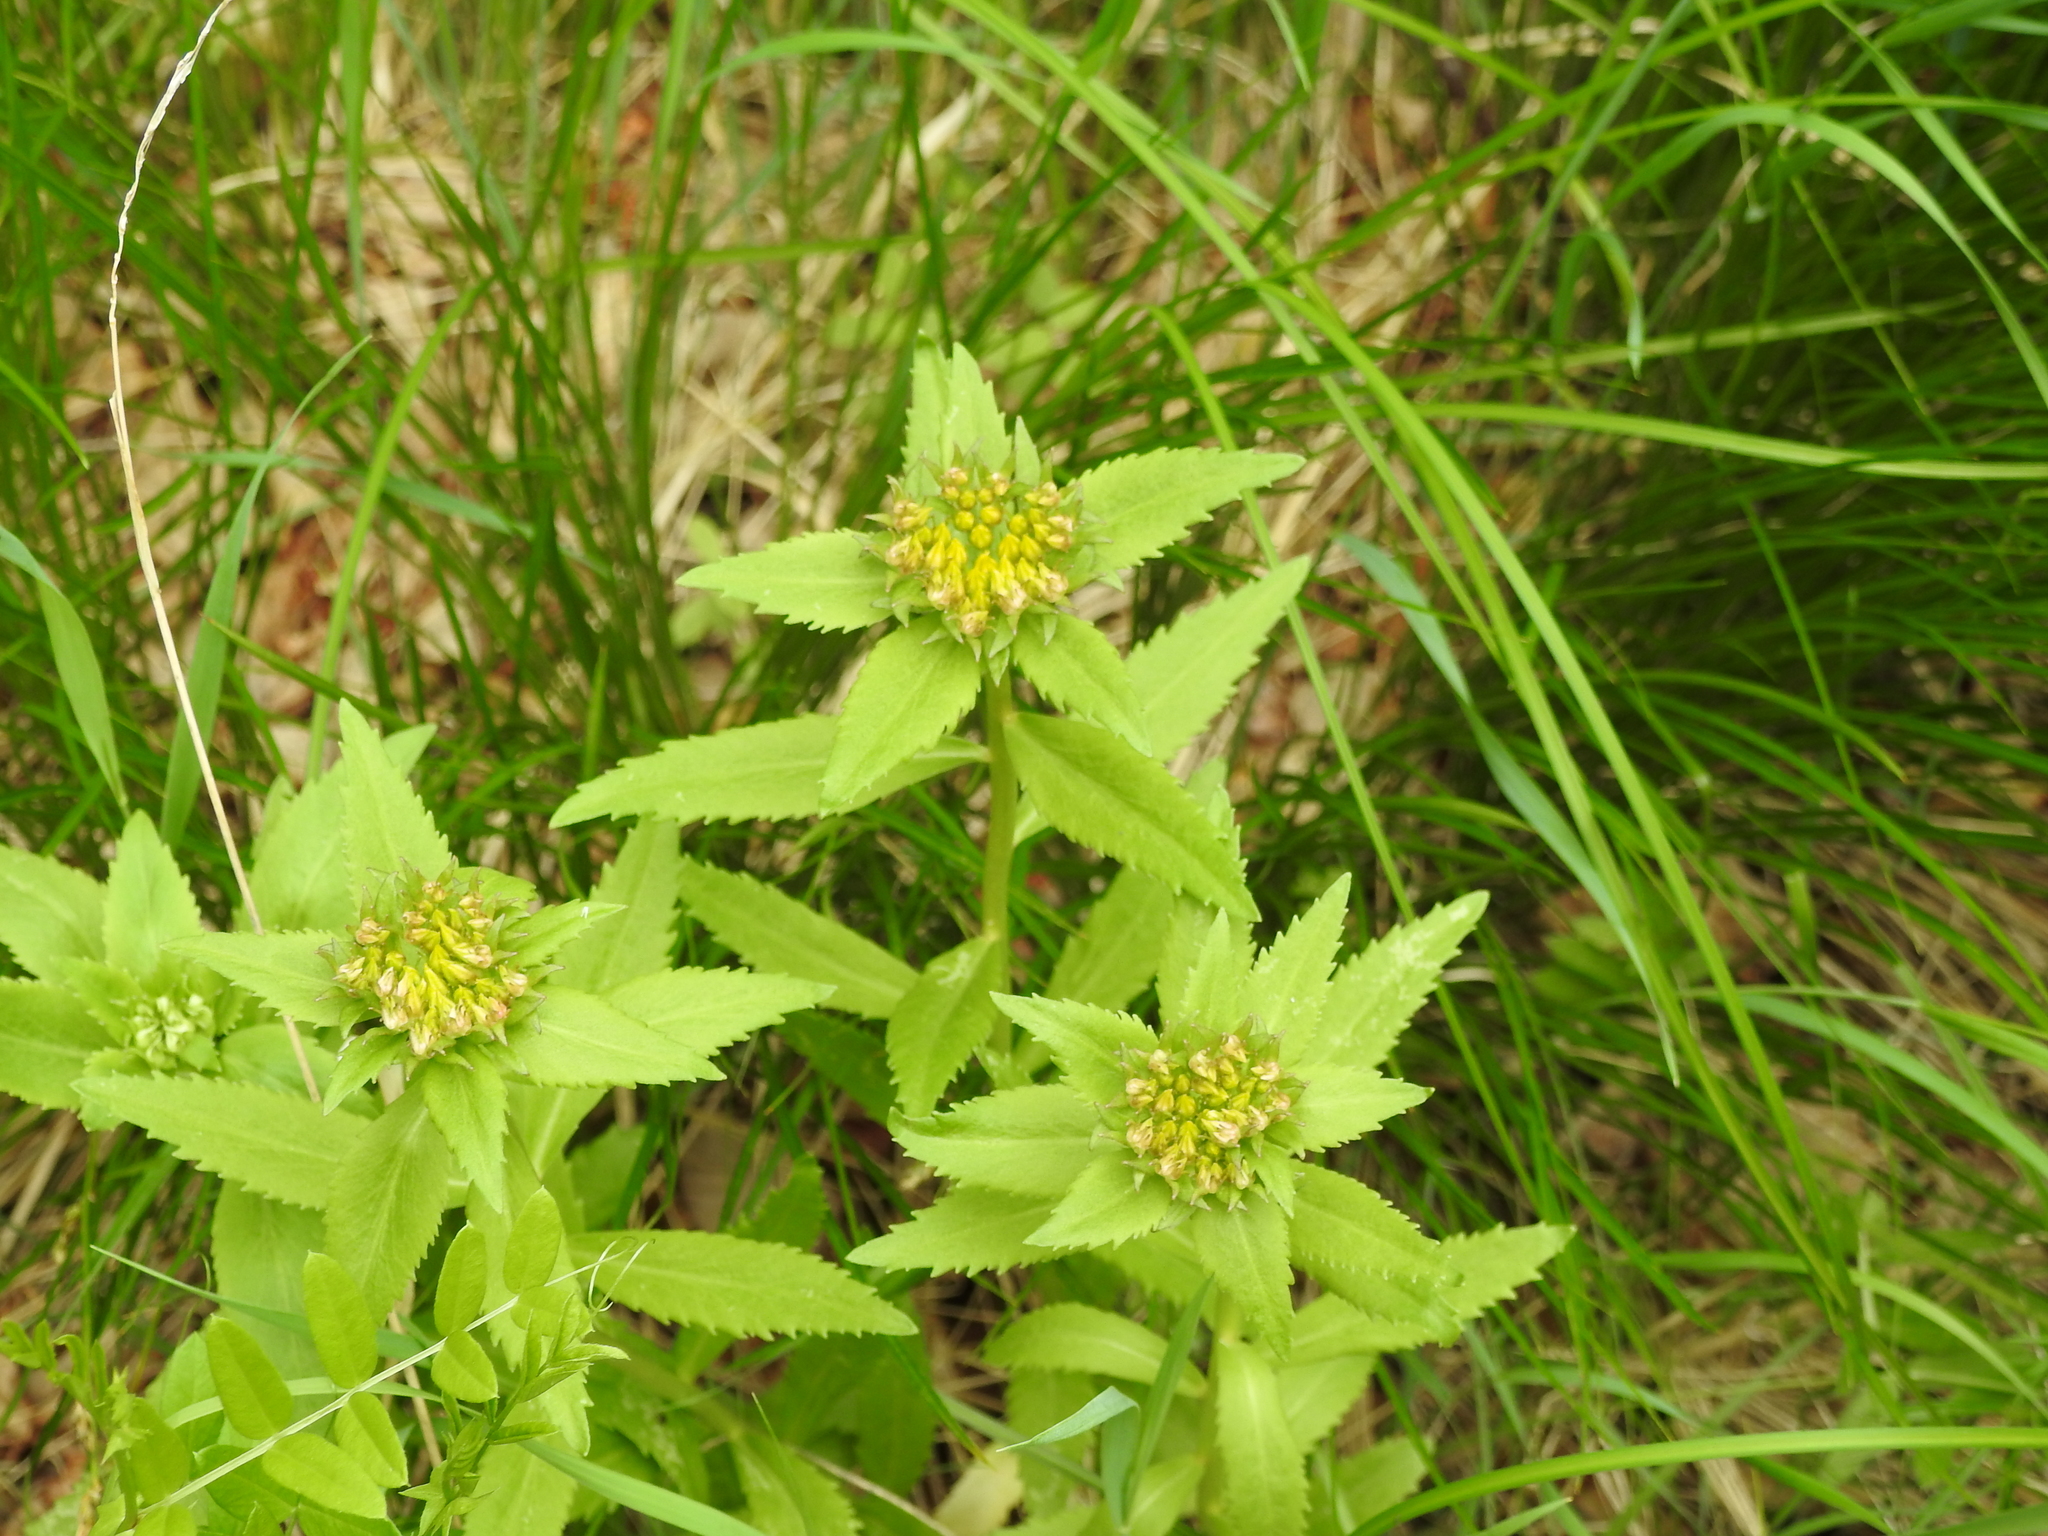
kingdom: Plantae
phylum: Tracheophyta
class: Magnoliopsida
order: Saxifragales
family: Crassulaceae
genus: Phedimus
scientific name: Phedimus aizoon
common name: Orpin aizoon
